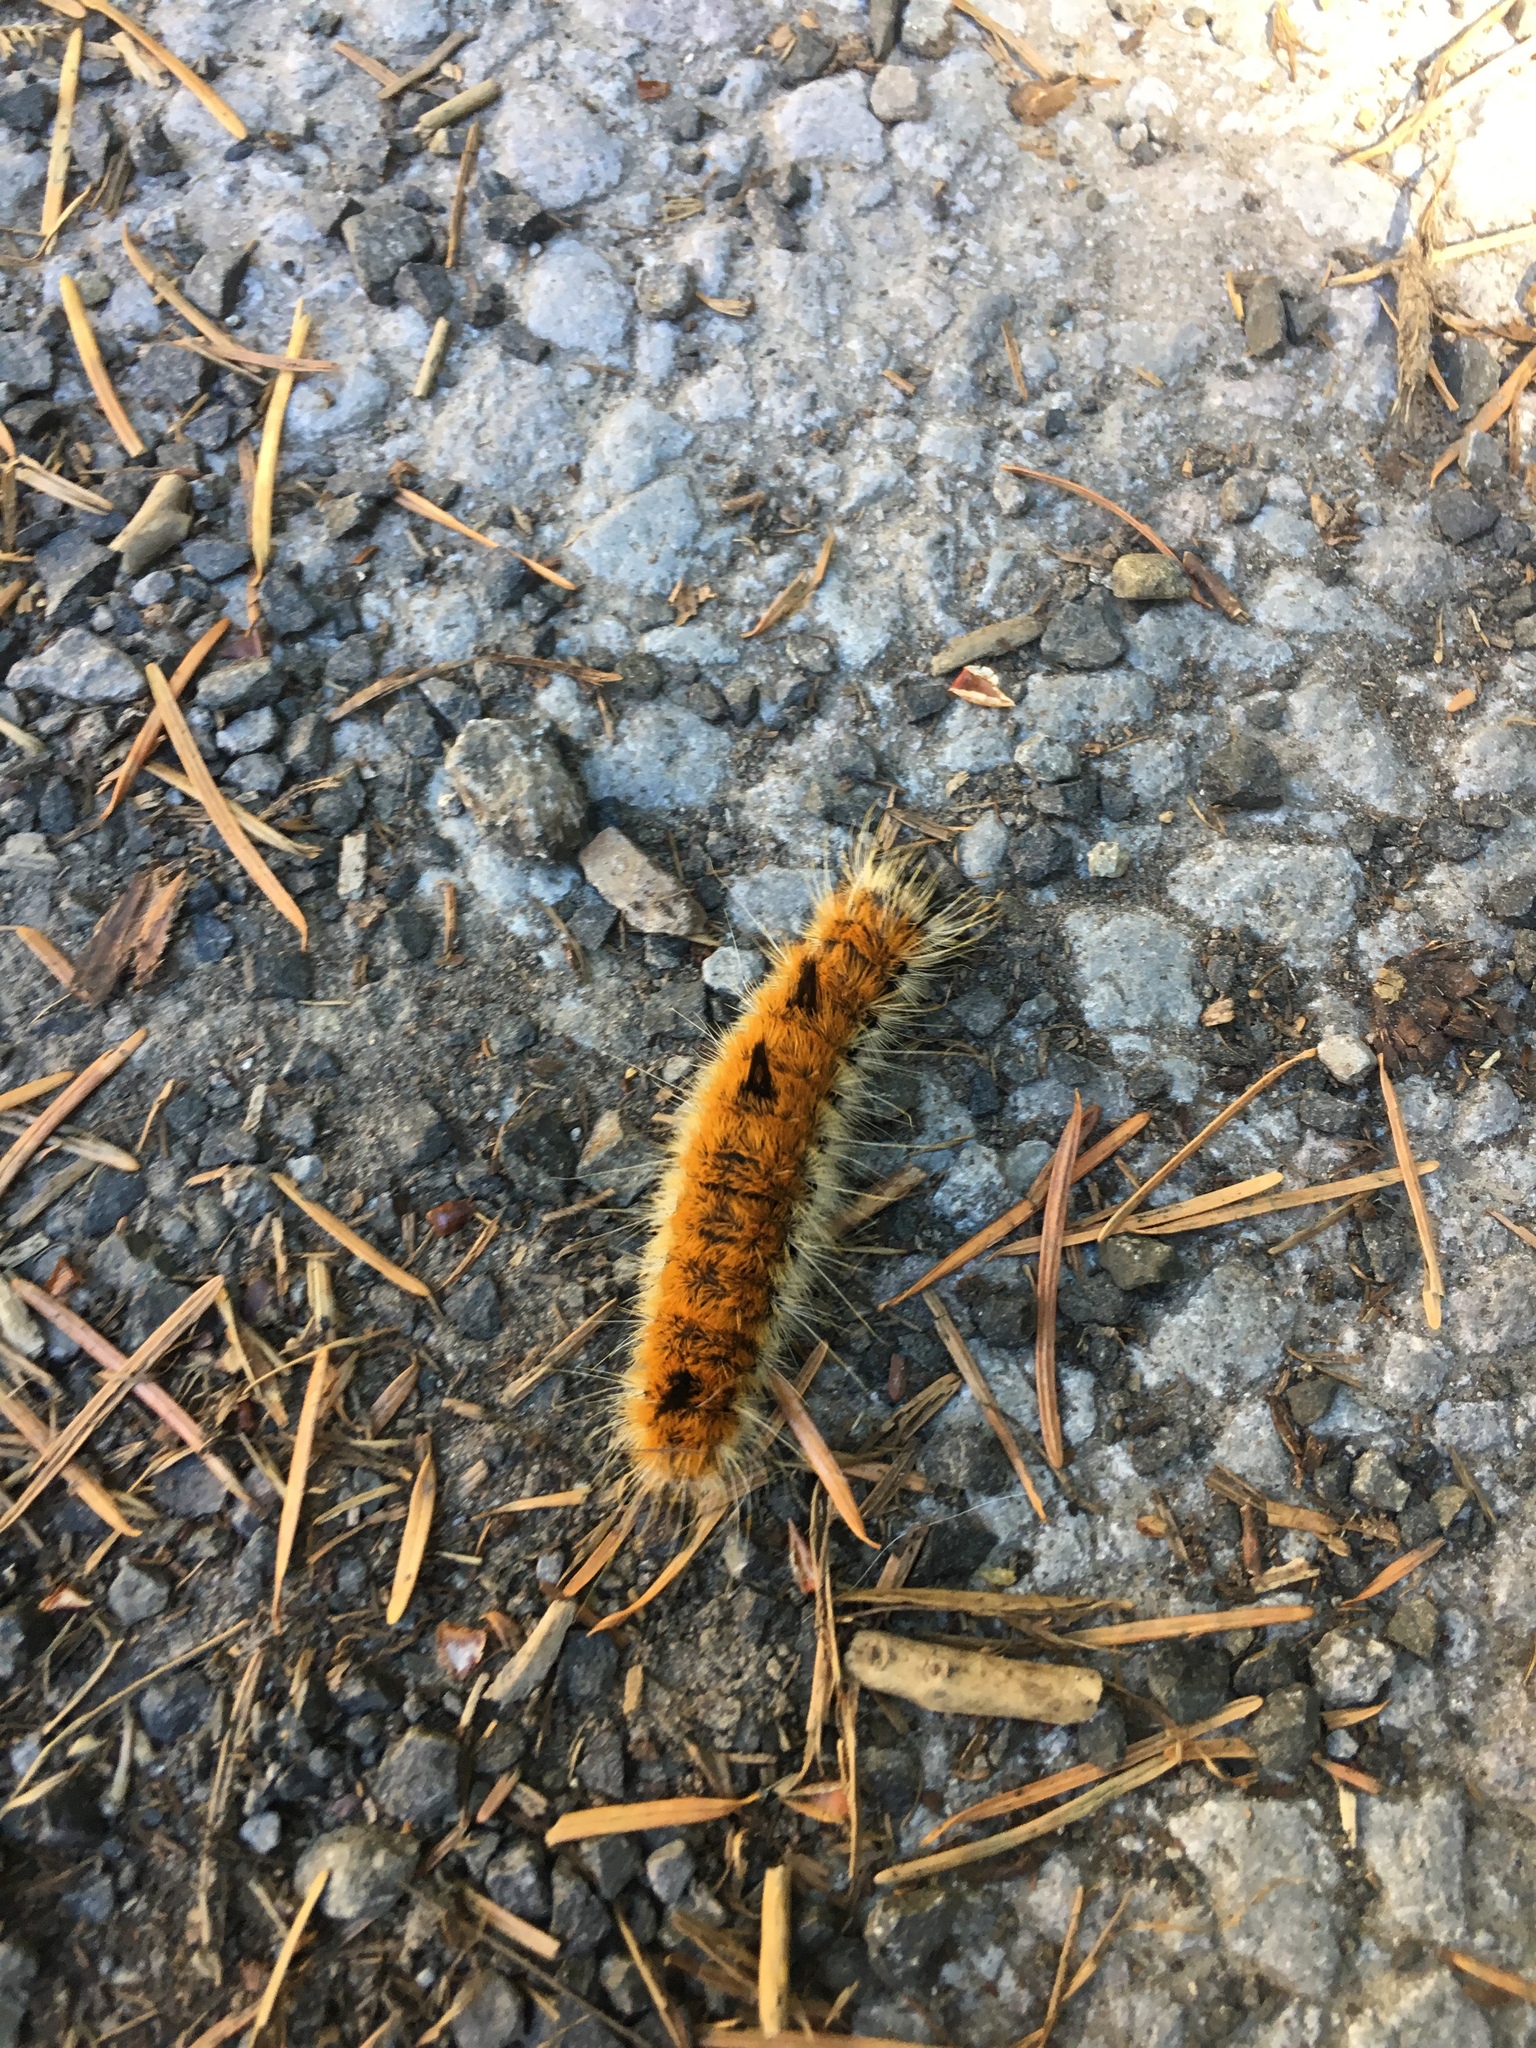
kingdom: Animalia
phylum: Arthropoda
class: Insecta
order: Lepidoptera
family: Noctuidae
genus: Acronicta
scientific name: Acronicta insita
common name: Large gray dagger
